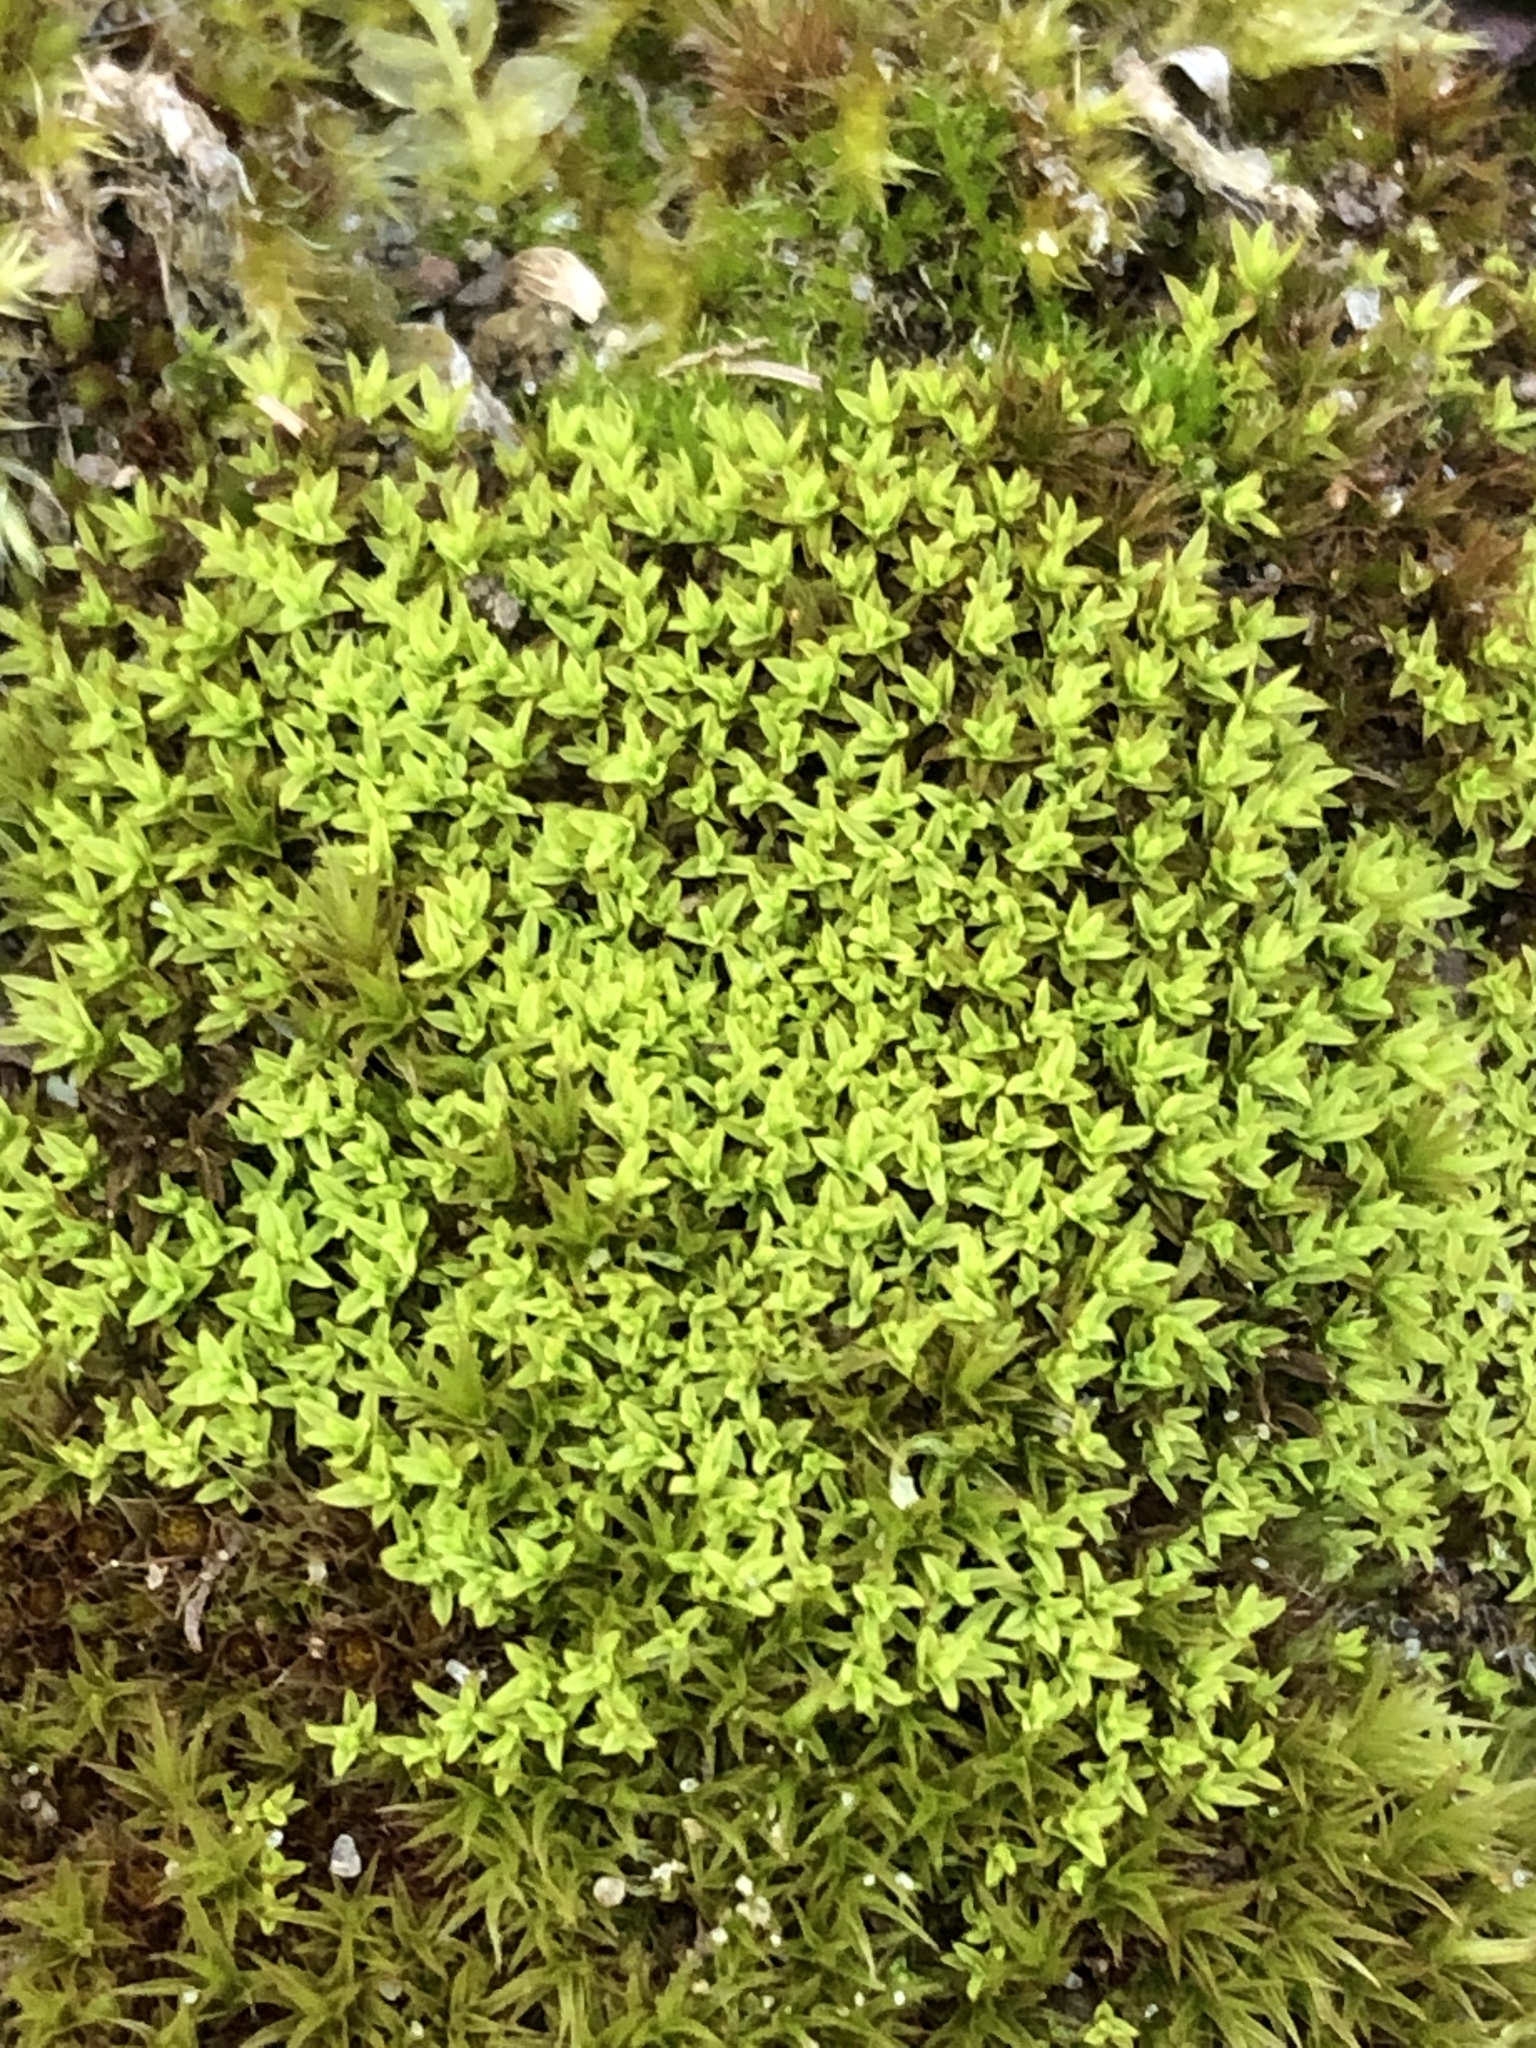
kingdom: Plantae
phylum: Bryophyta
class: Bryopsida
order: Pottiales
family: Pottiaceae
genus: Streblotrichum
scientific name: Streblotrichum convolutum
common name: Lesser bird's-claw beard-moss
